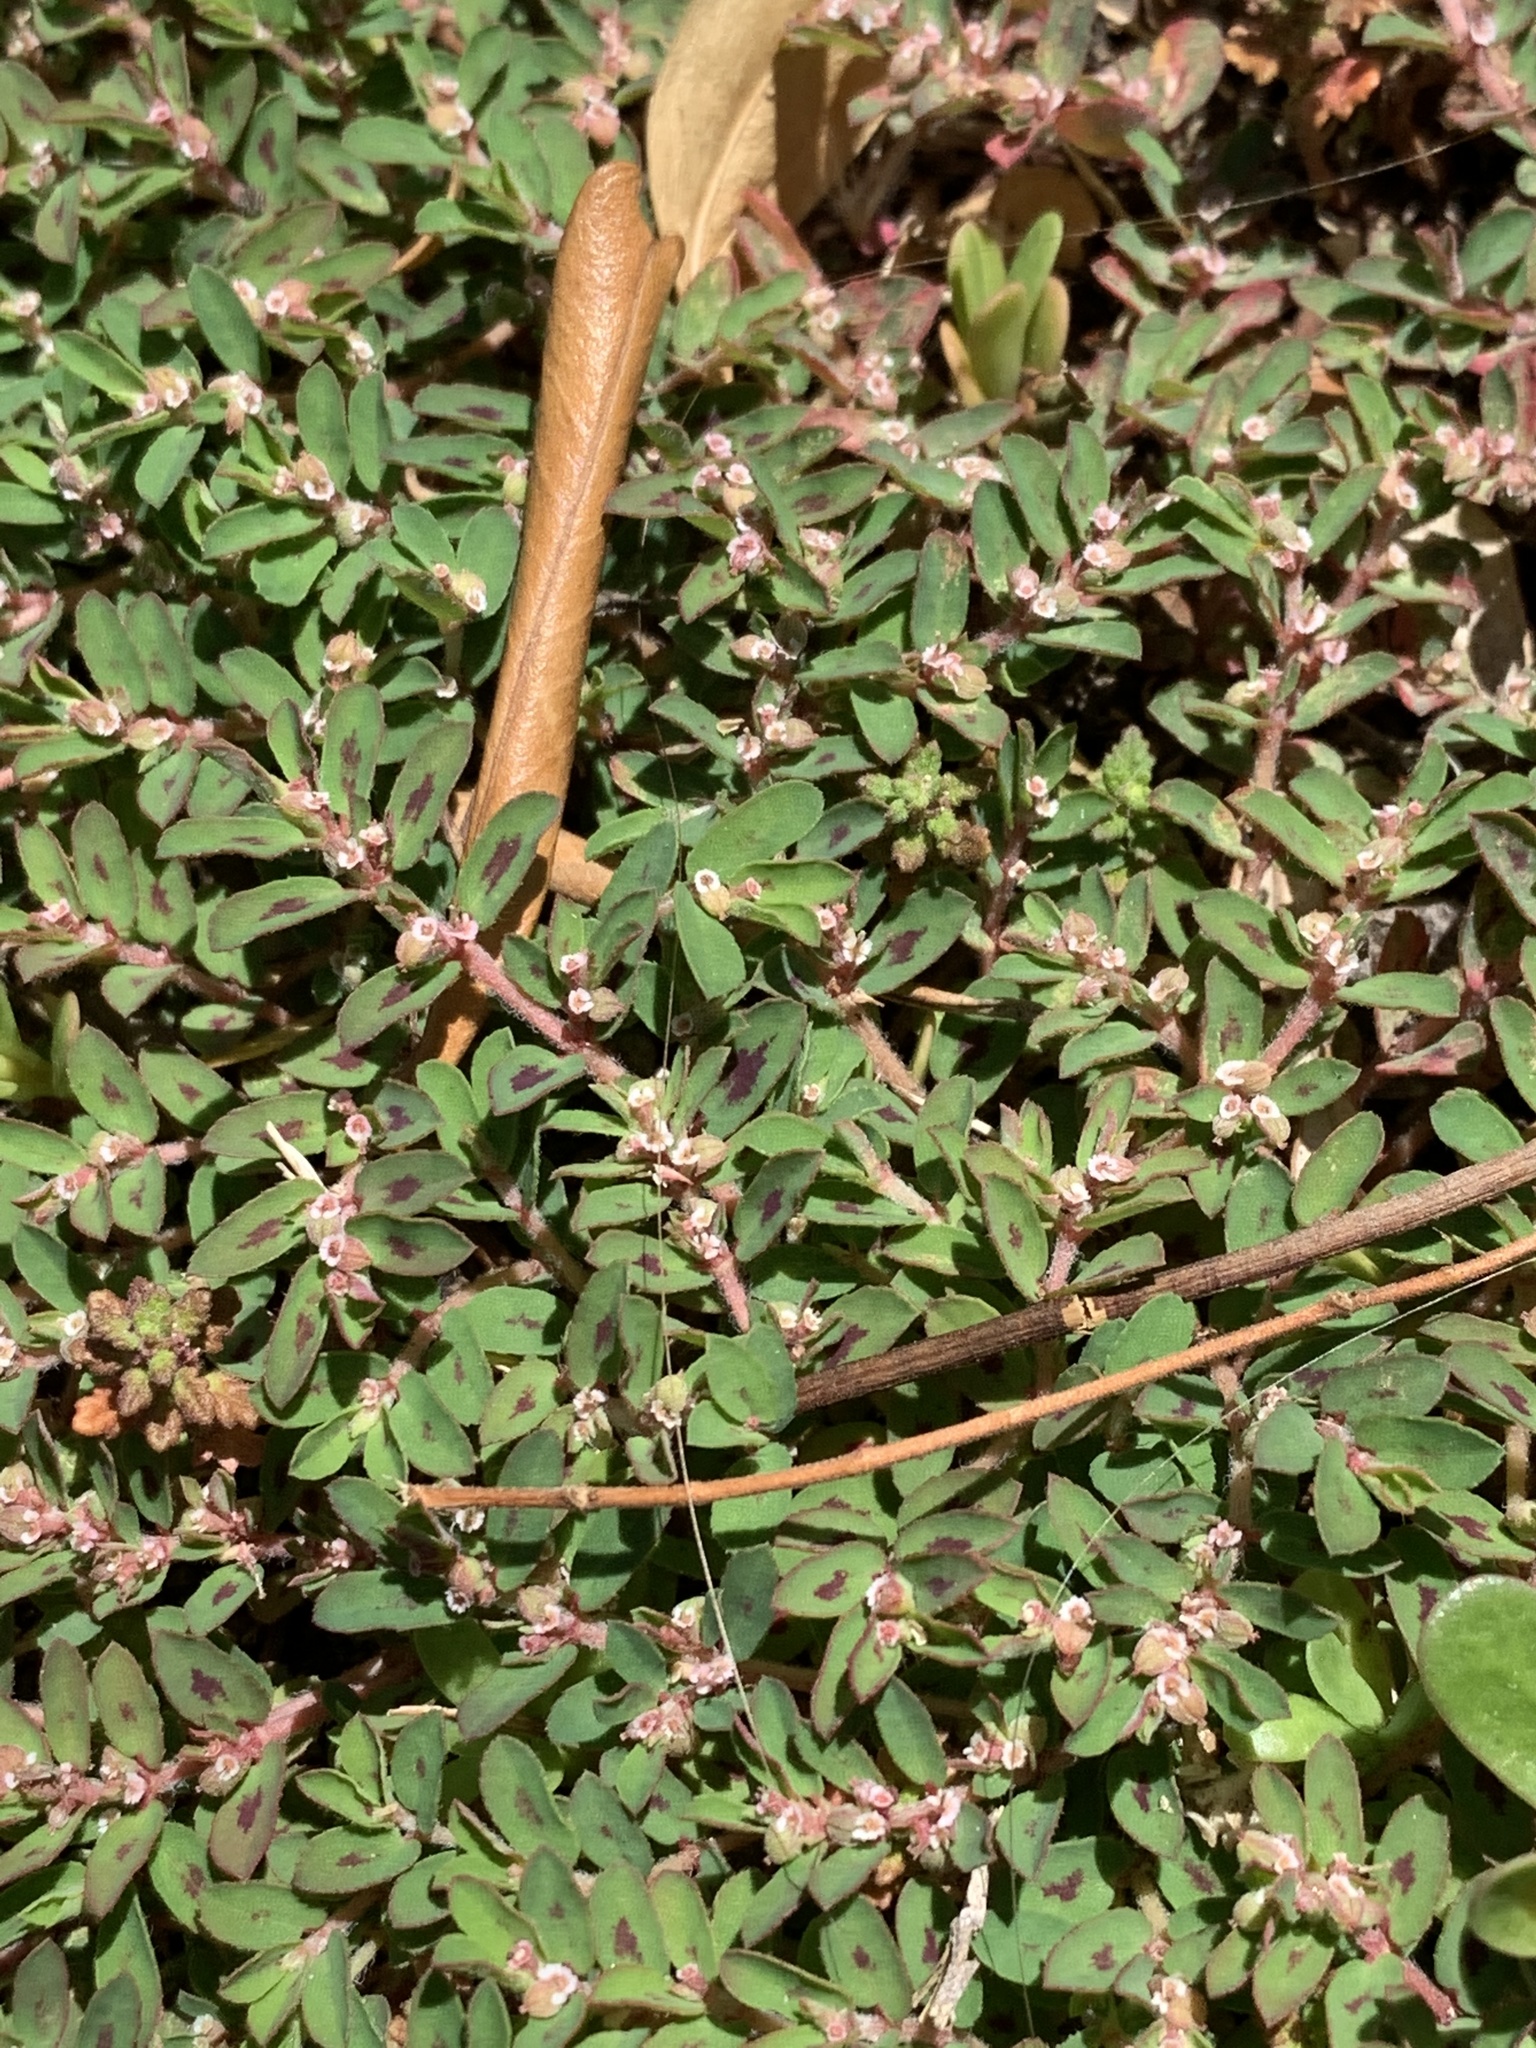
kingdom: Plantae
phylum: Tracheophyta
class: Magnoliopsida
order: Malpighiales
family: Euphorbiaceae
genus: Euphorbia
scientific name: Euphorbia maculata
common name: Spotted spurge
